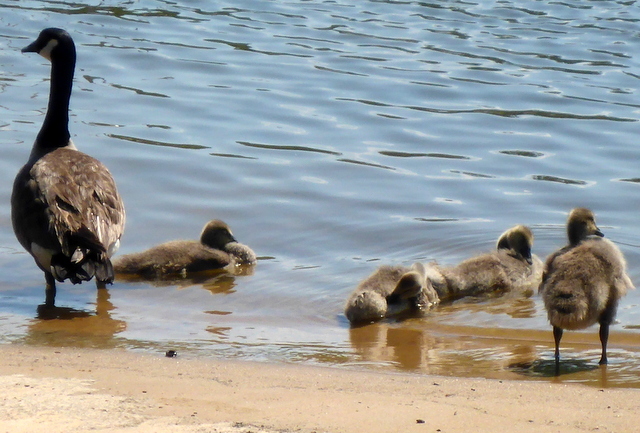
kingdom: Animalia
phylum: Chordata
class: Aves
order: Anseriformes
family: Anatidae
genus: Branta
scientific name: Branta canadensis
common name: Canada goose
